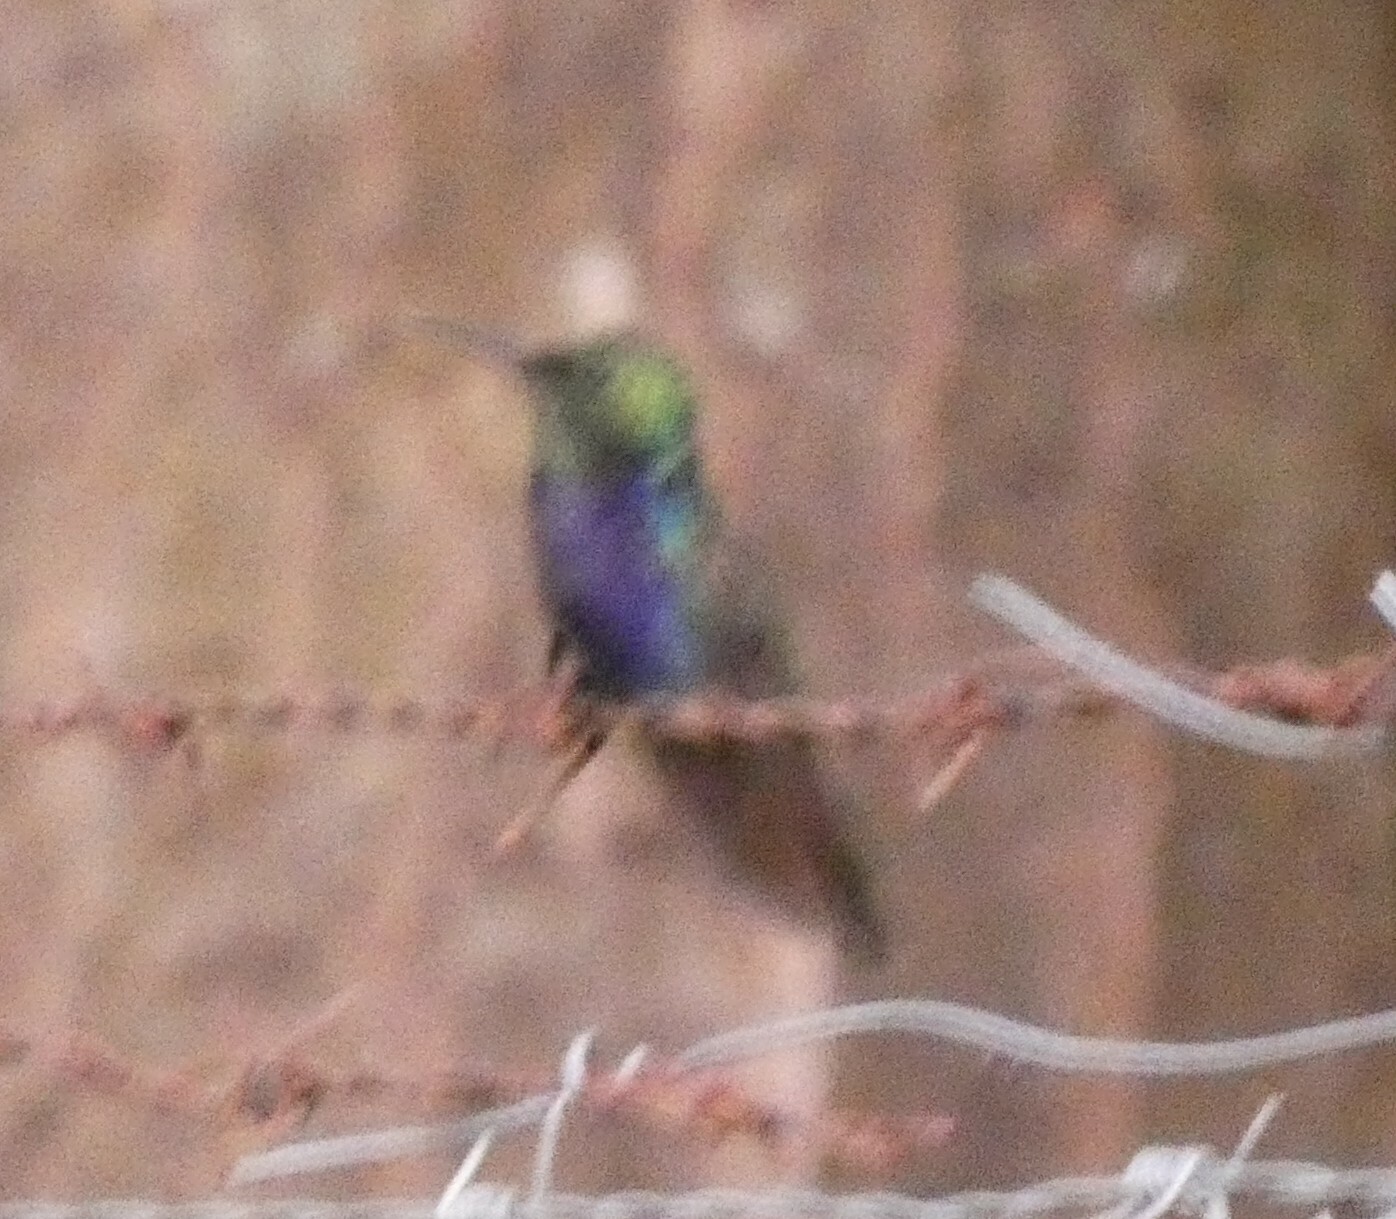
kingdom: Animalia
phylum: Chordata
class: Aves
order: Apodiformes
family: Trochilidae
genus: Thalurania
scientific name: Thalurania furcata
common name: Fork-tailed woodnymph
